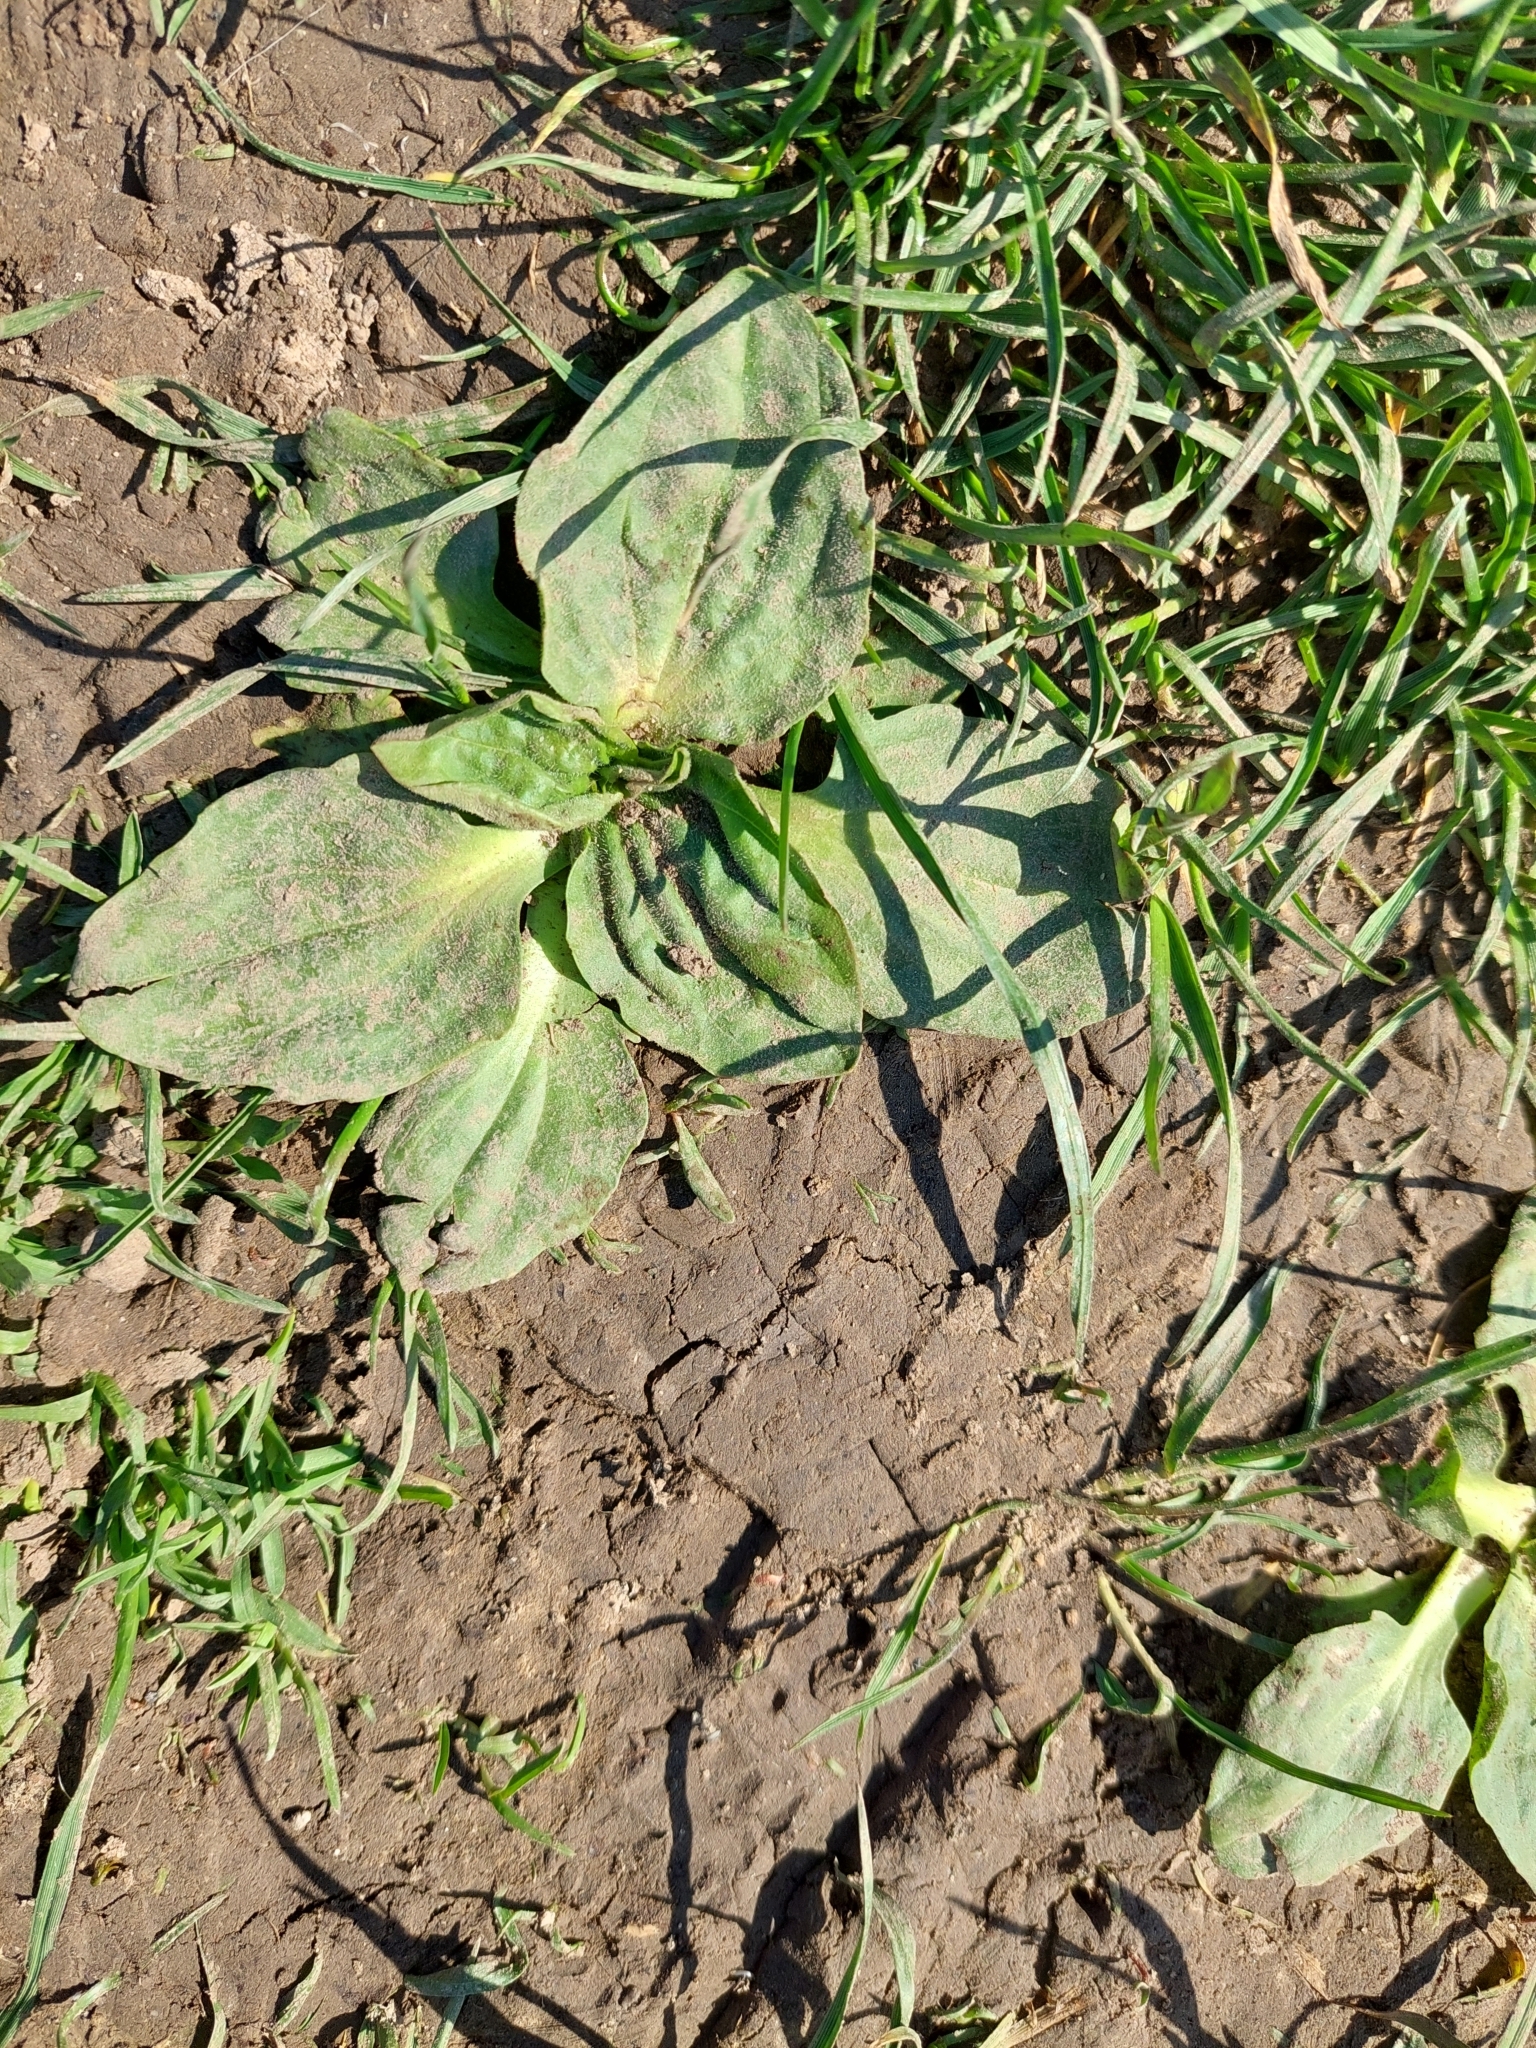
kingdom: Plantae
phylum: Tracheophyta
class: Magnoliopsida
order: Lamiales
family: Plantaginaceae
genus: Plantago
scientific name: Plantago major
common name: Common plantain
